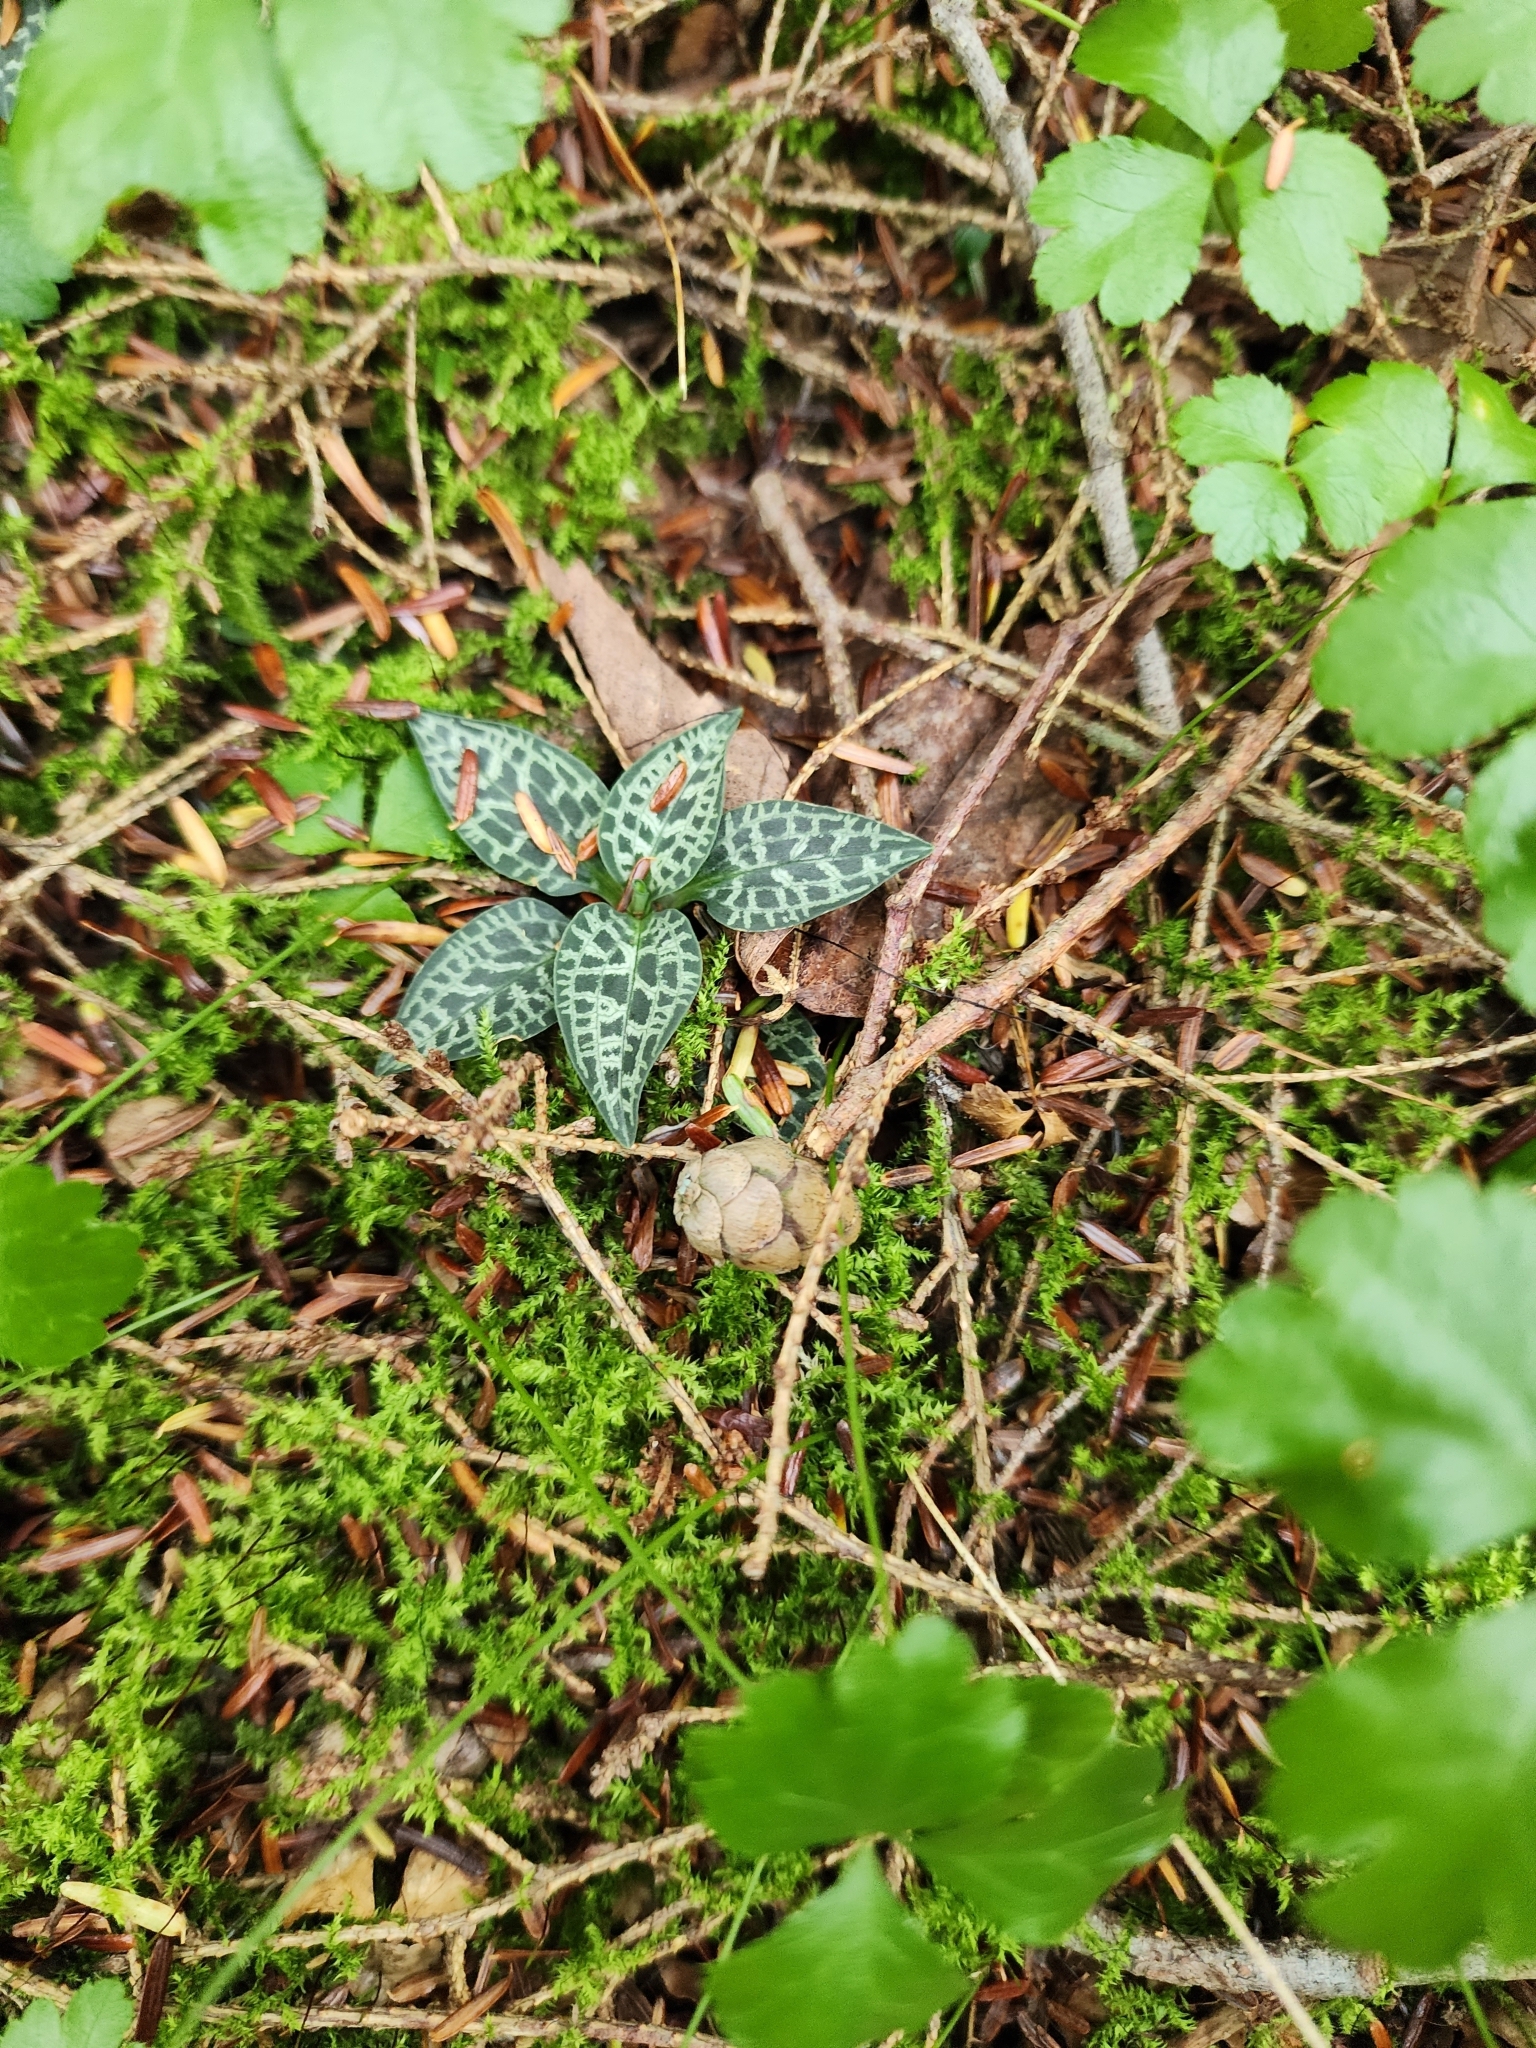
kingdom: Plantae
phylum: Tracheophyta
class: Liliopsida
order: Asparagales
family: Orchidaceae
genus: Goodyera
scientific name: Goodyera repens
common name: Creeping lady's-tresses
